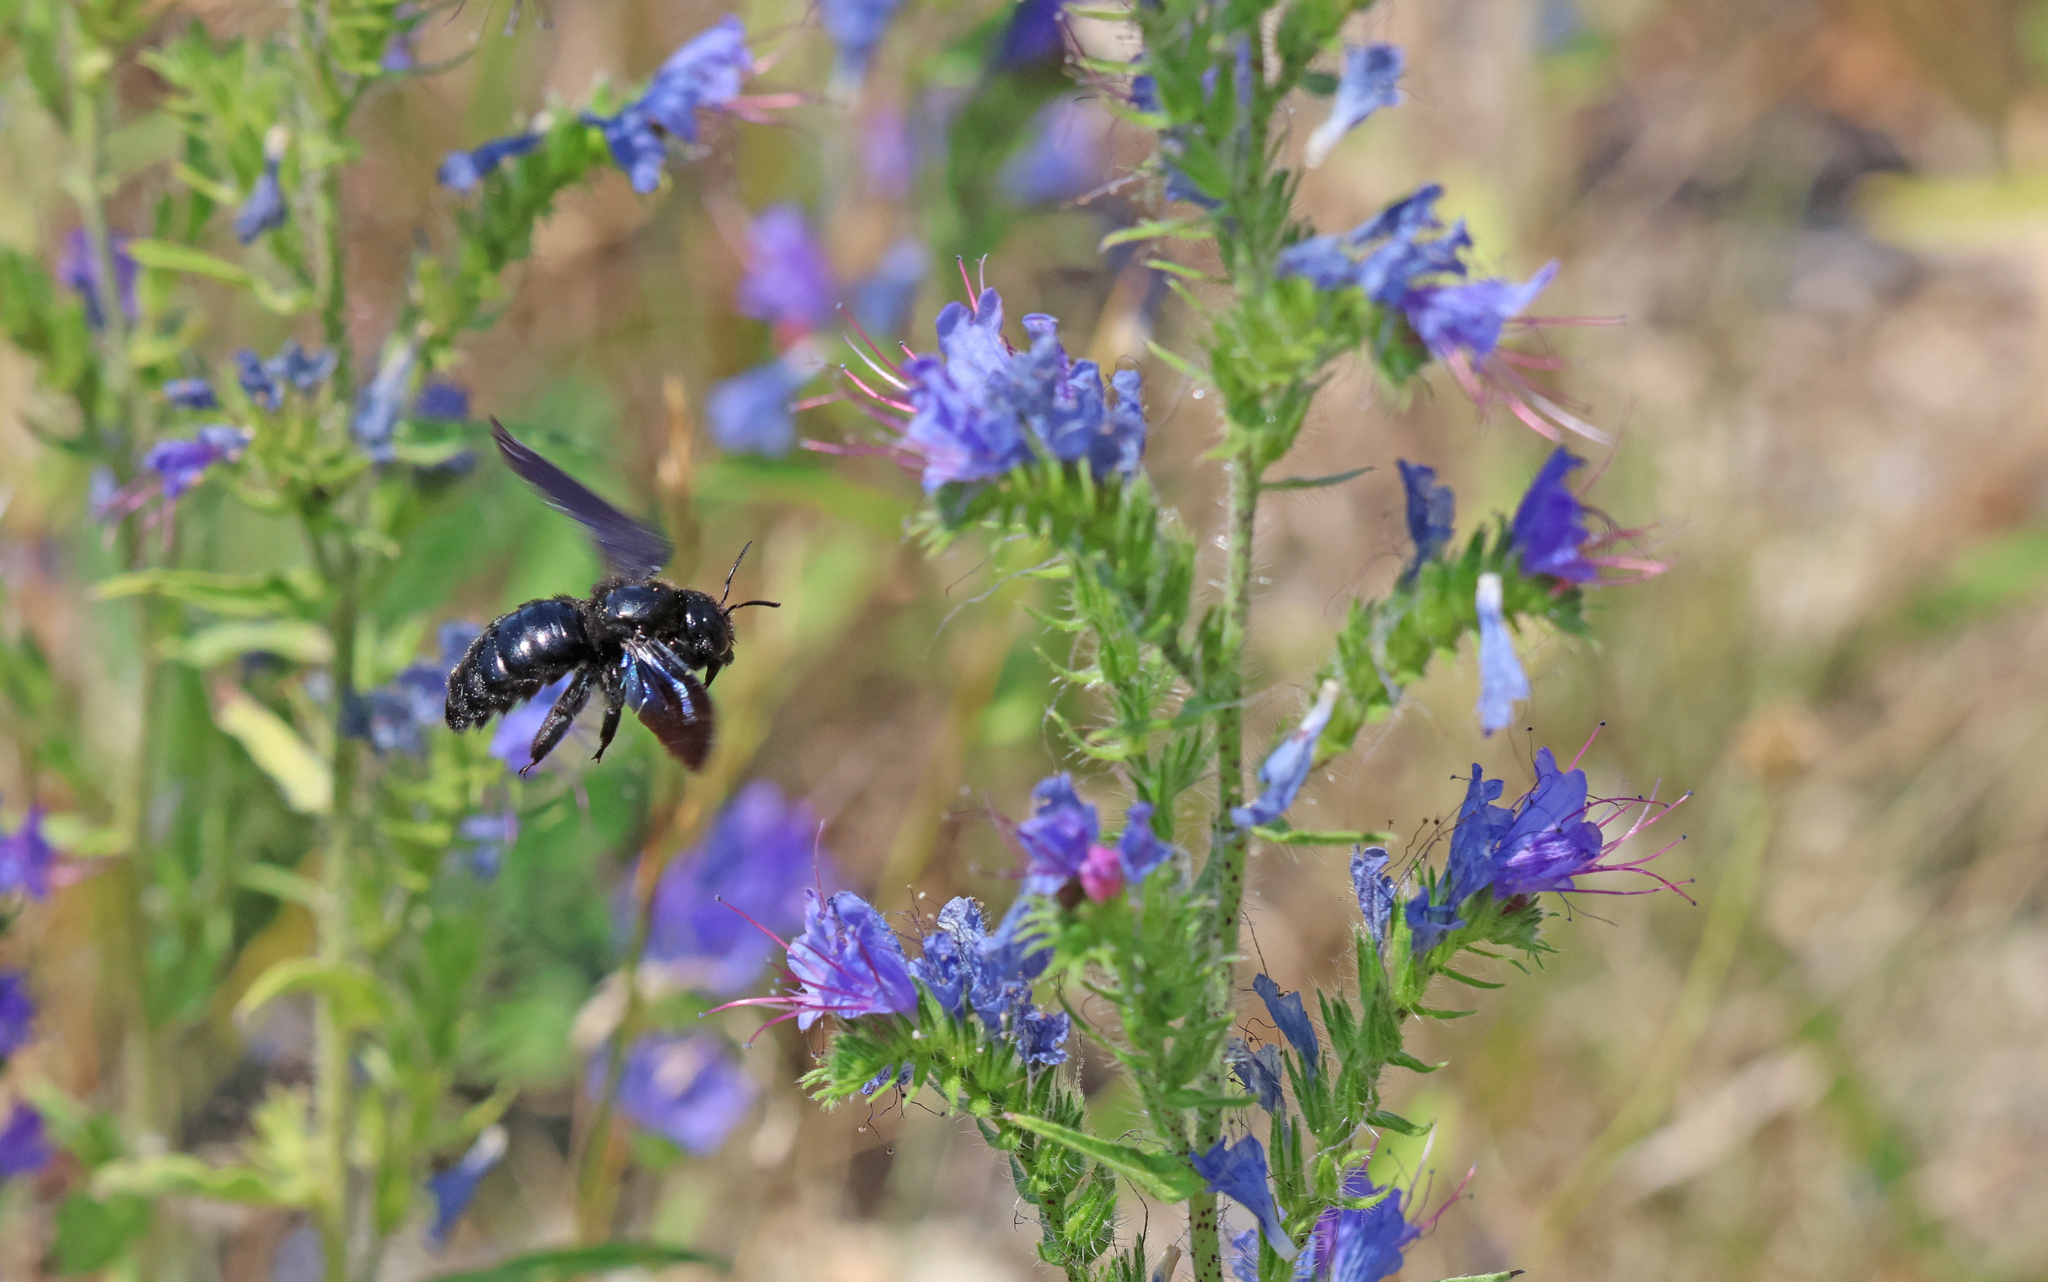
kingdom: Animalia
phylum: Arthropoda
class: Insecta
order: Hymenoptera
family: Apidae
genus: Xylocopa
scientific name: Xylocopa
